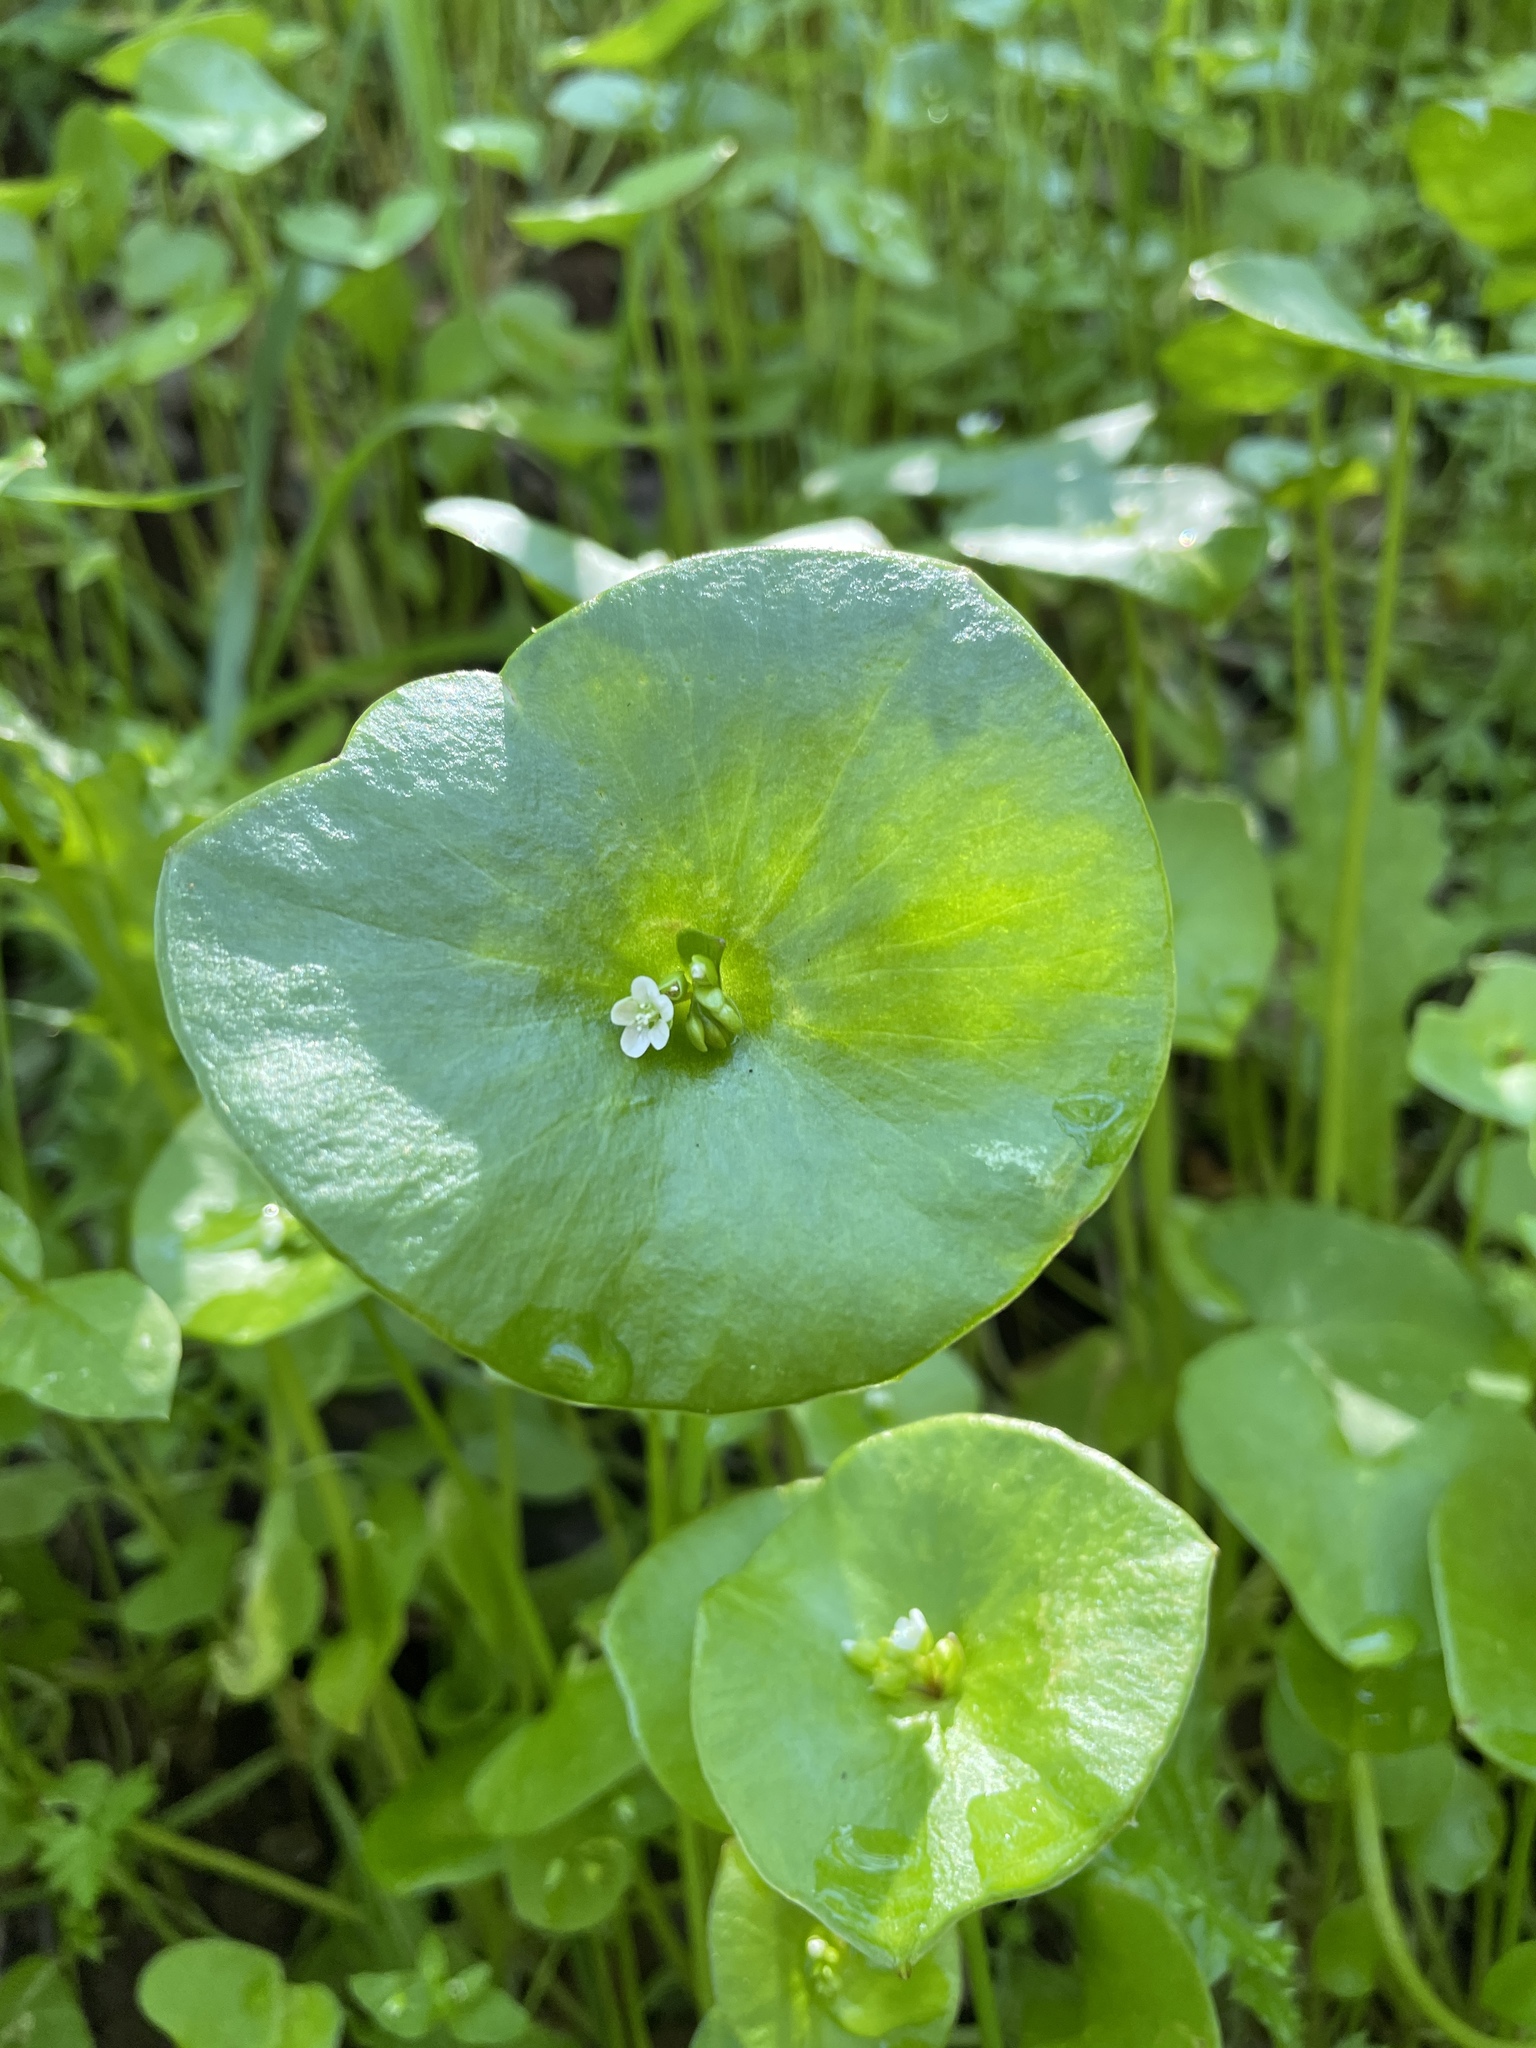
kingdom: Plantae
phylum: Tracheophyta
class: Magnoliopsida
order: Caryophyllales
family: Montiaceae
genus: Claytonia
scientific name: Claytonia perfoliata
